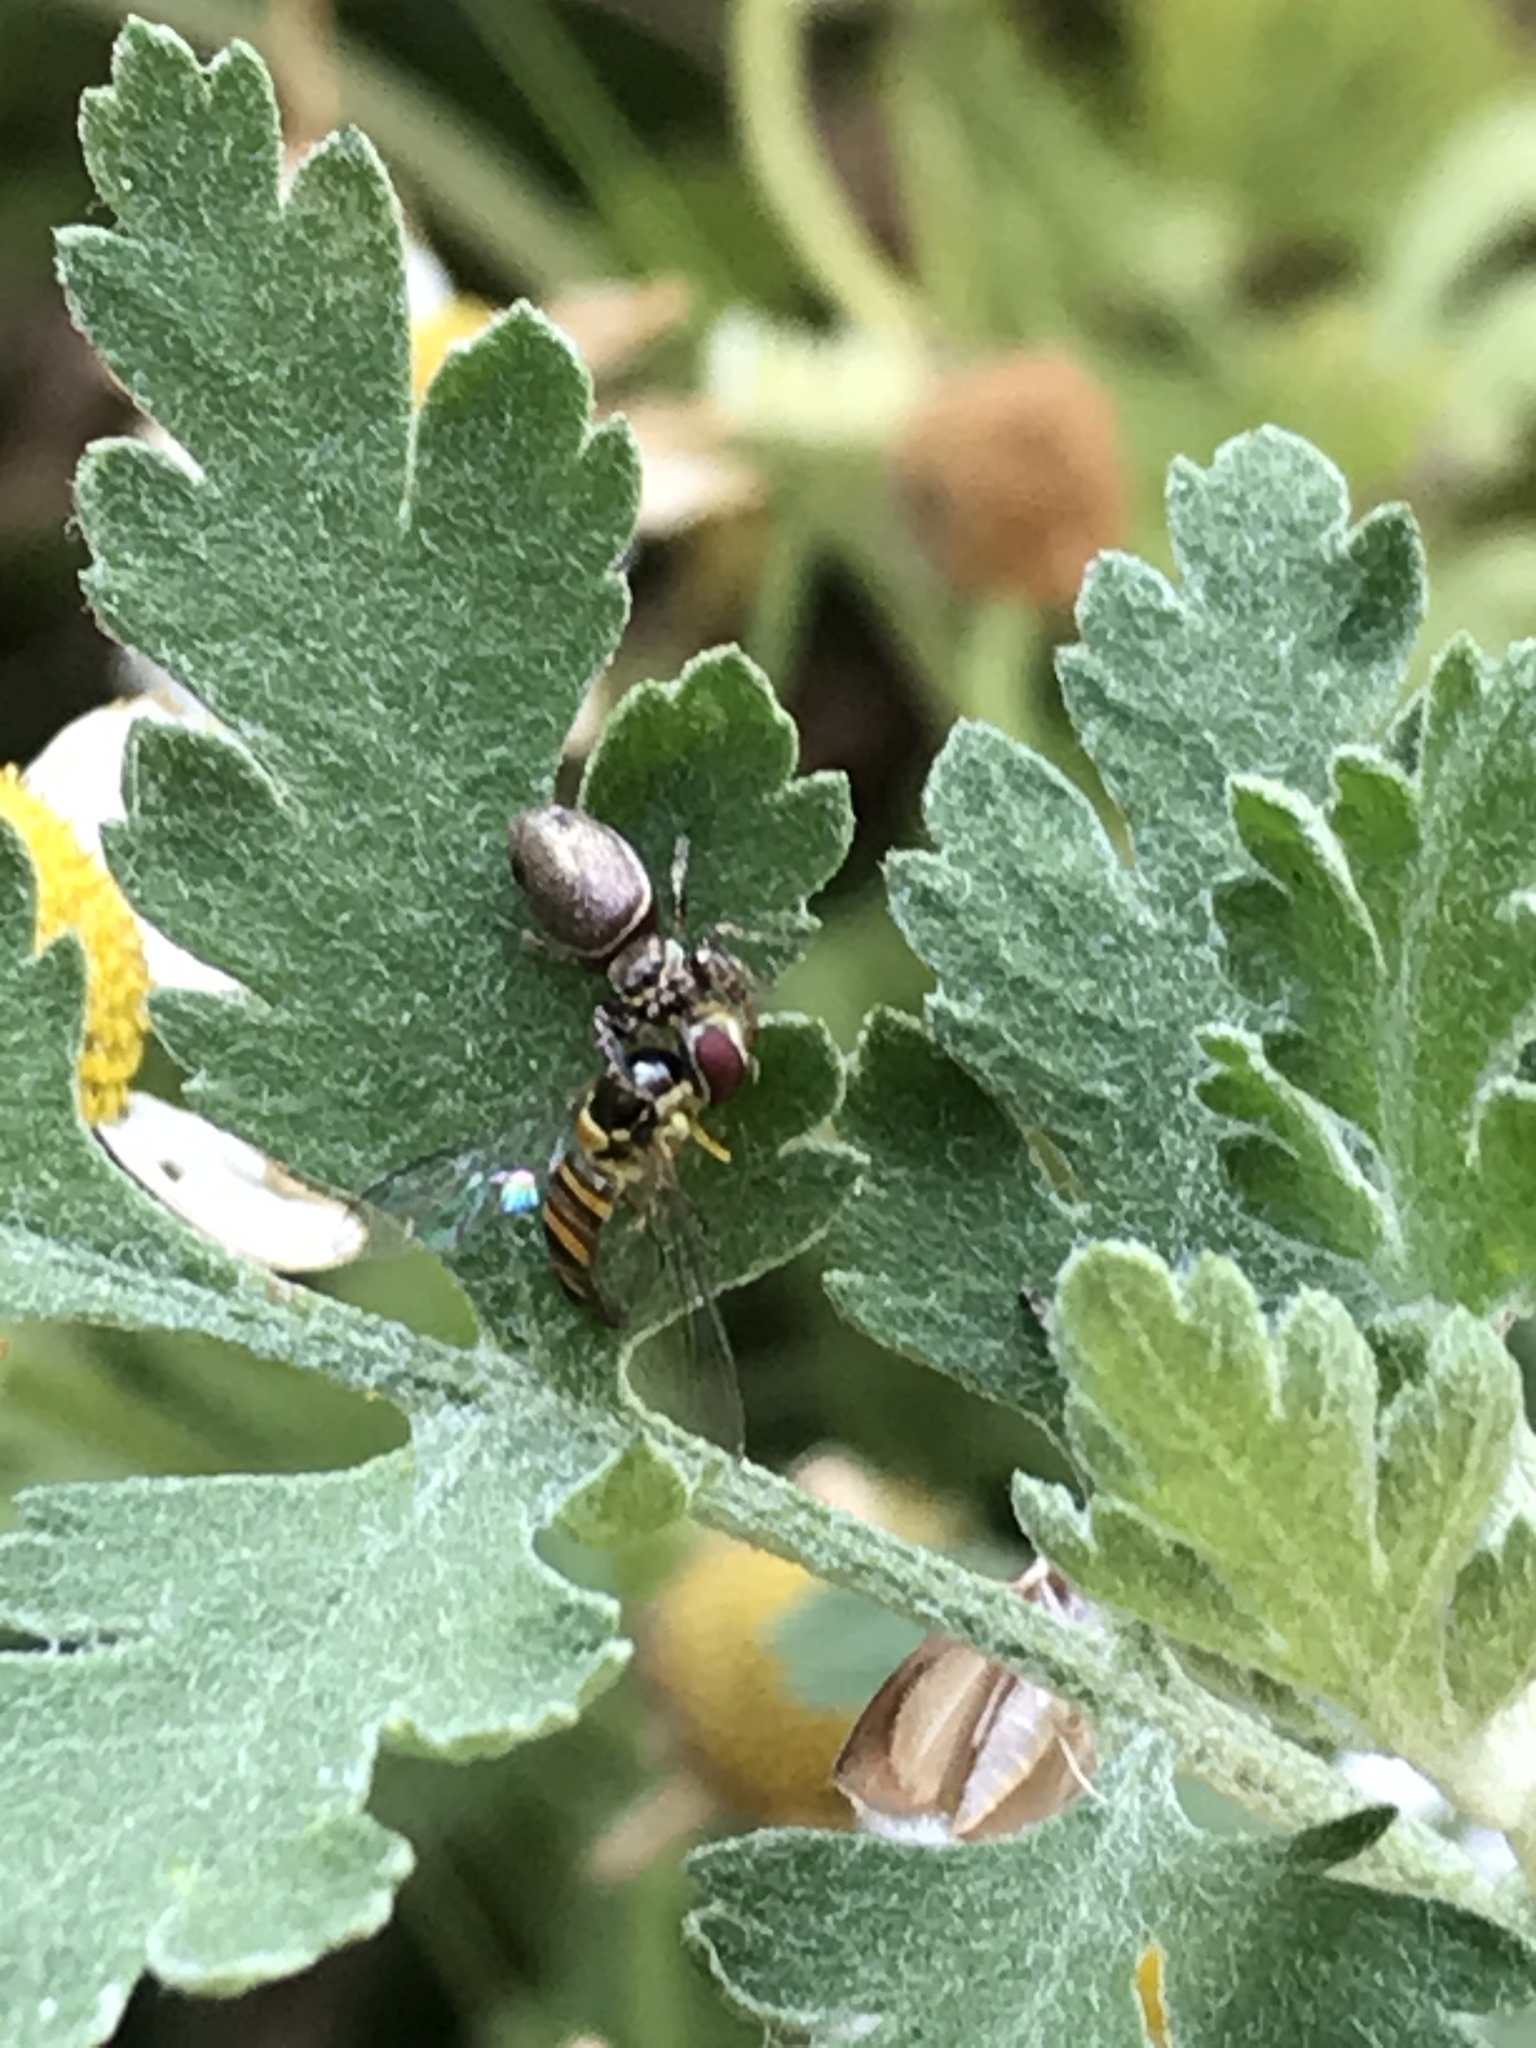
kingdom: Animalia
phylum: Arthropoda
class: Insecta
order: Diptera
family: Syrphidae
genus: Allograpta
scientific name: Allograpta obliqua
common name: Common oblique syrphid
